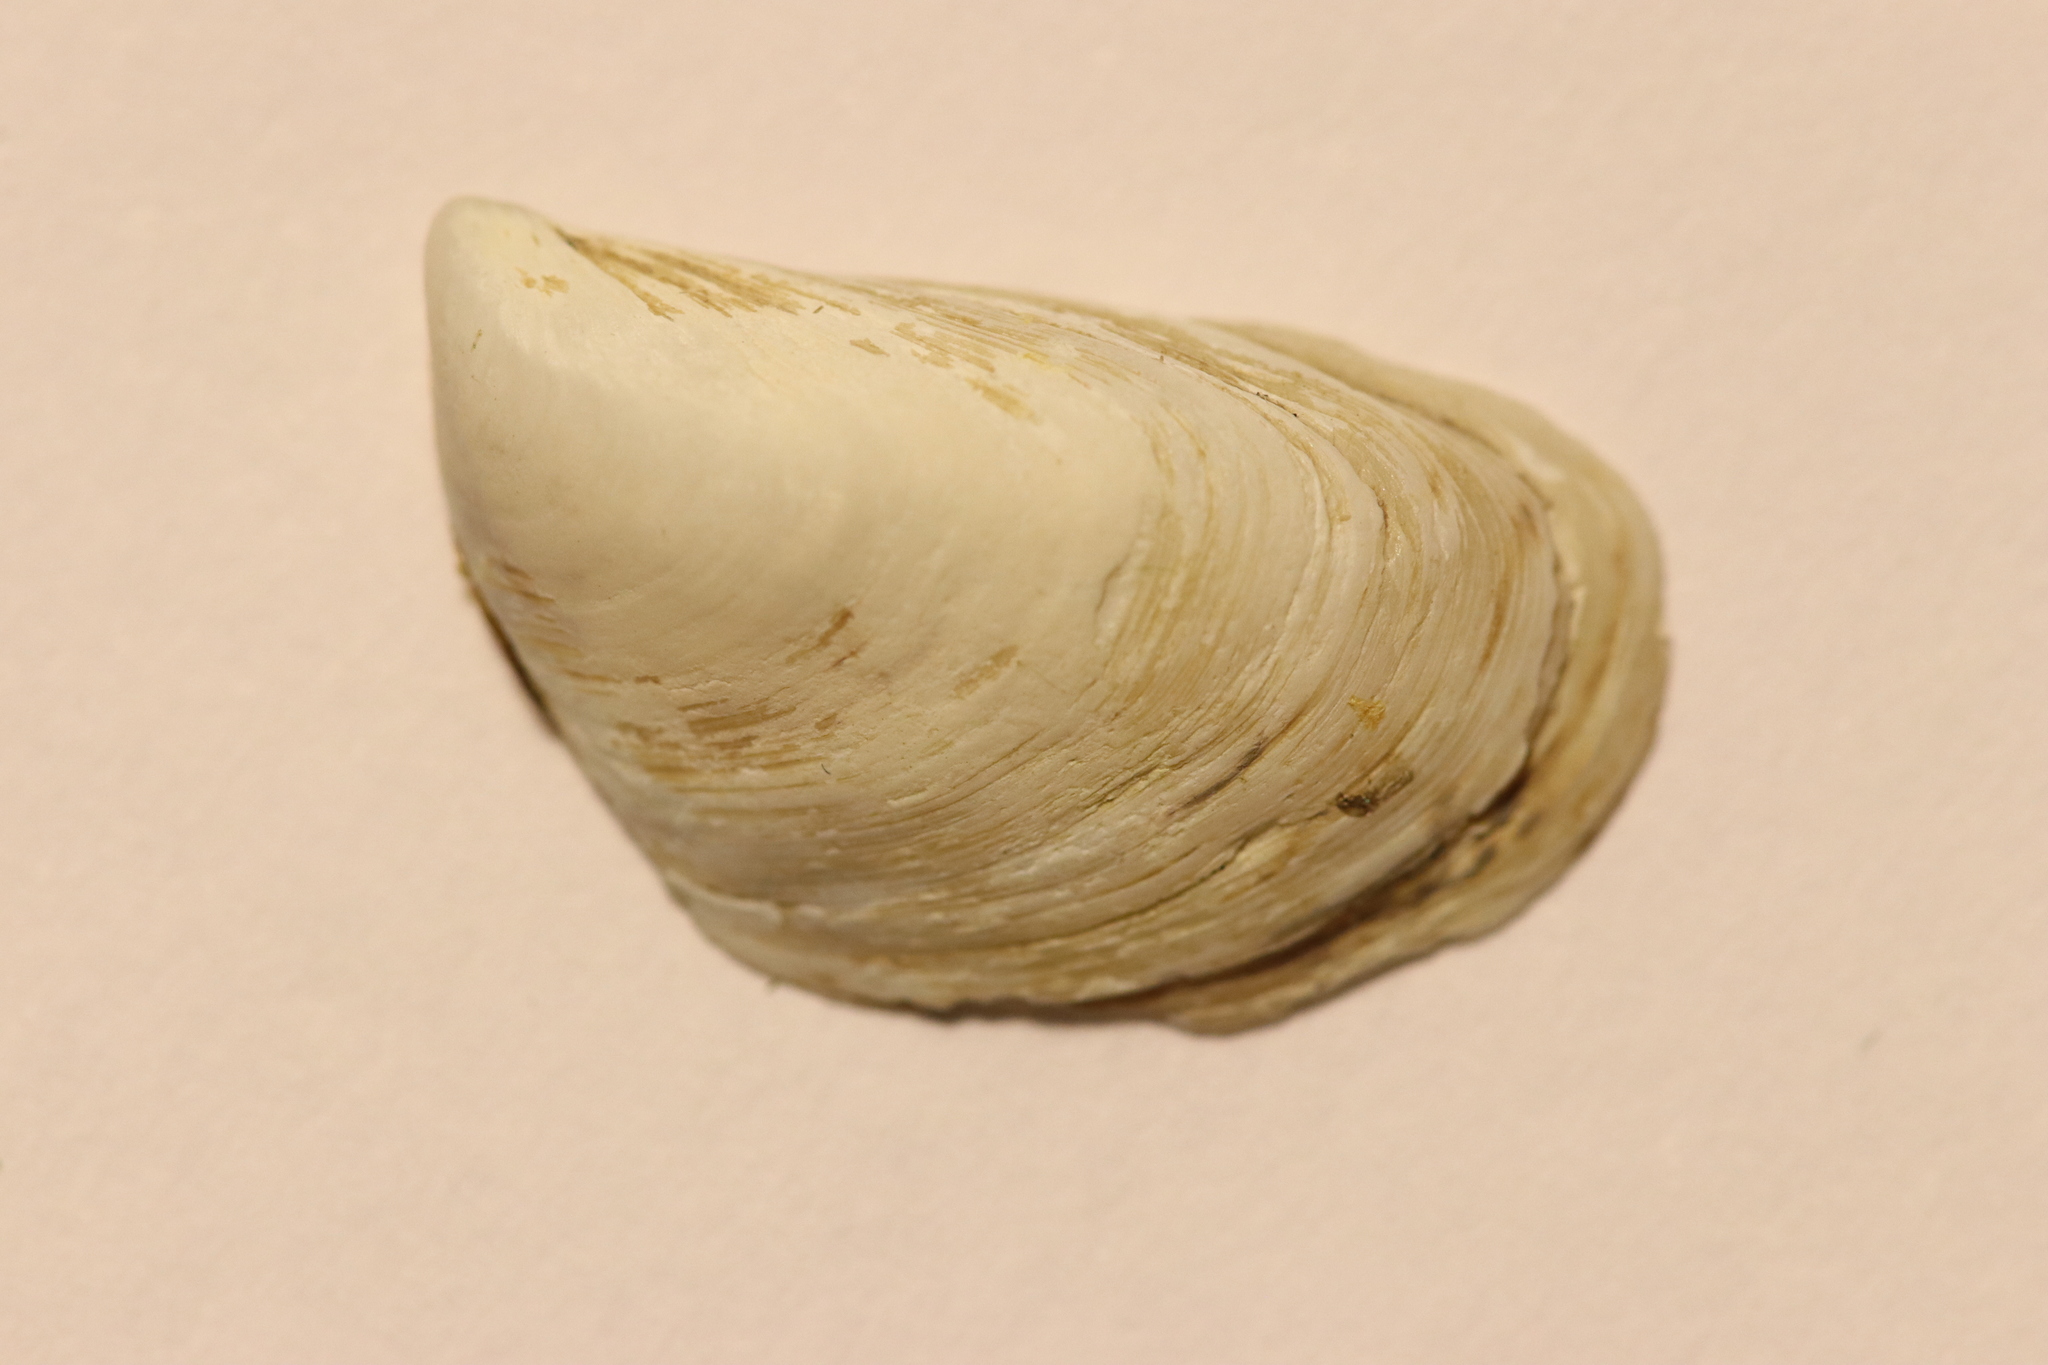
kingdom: Animalia
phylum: Mollusca
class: Bivalvia
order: Myida
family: Dreissenidae
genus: Dreissena
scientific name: Dreissena bugensis
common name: Quagga mussel
